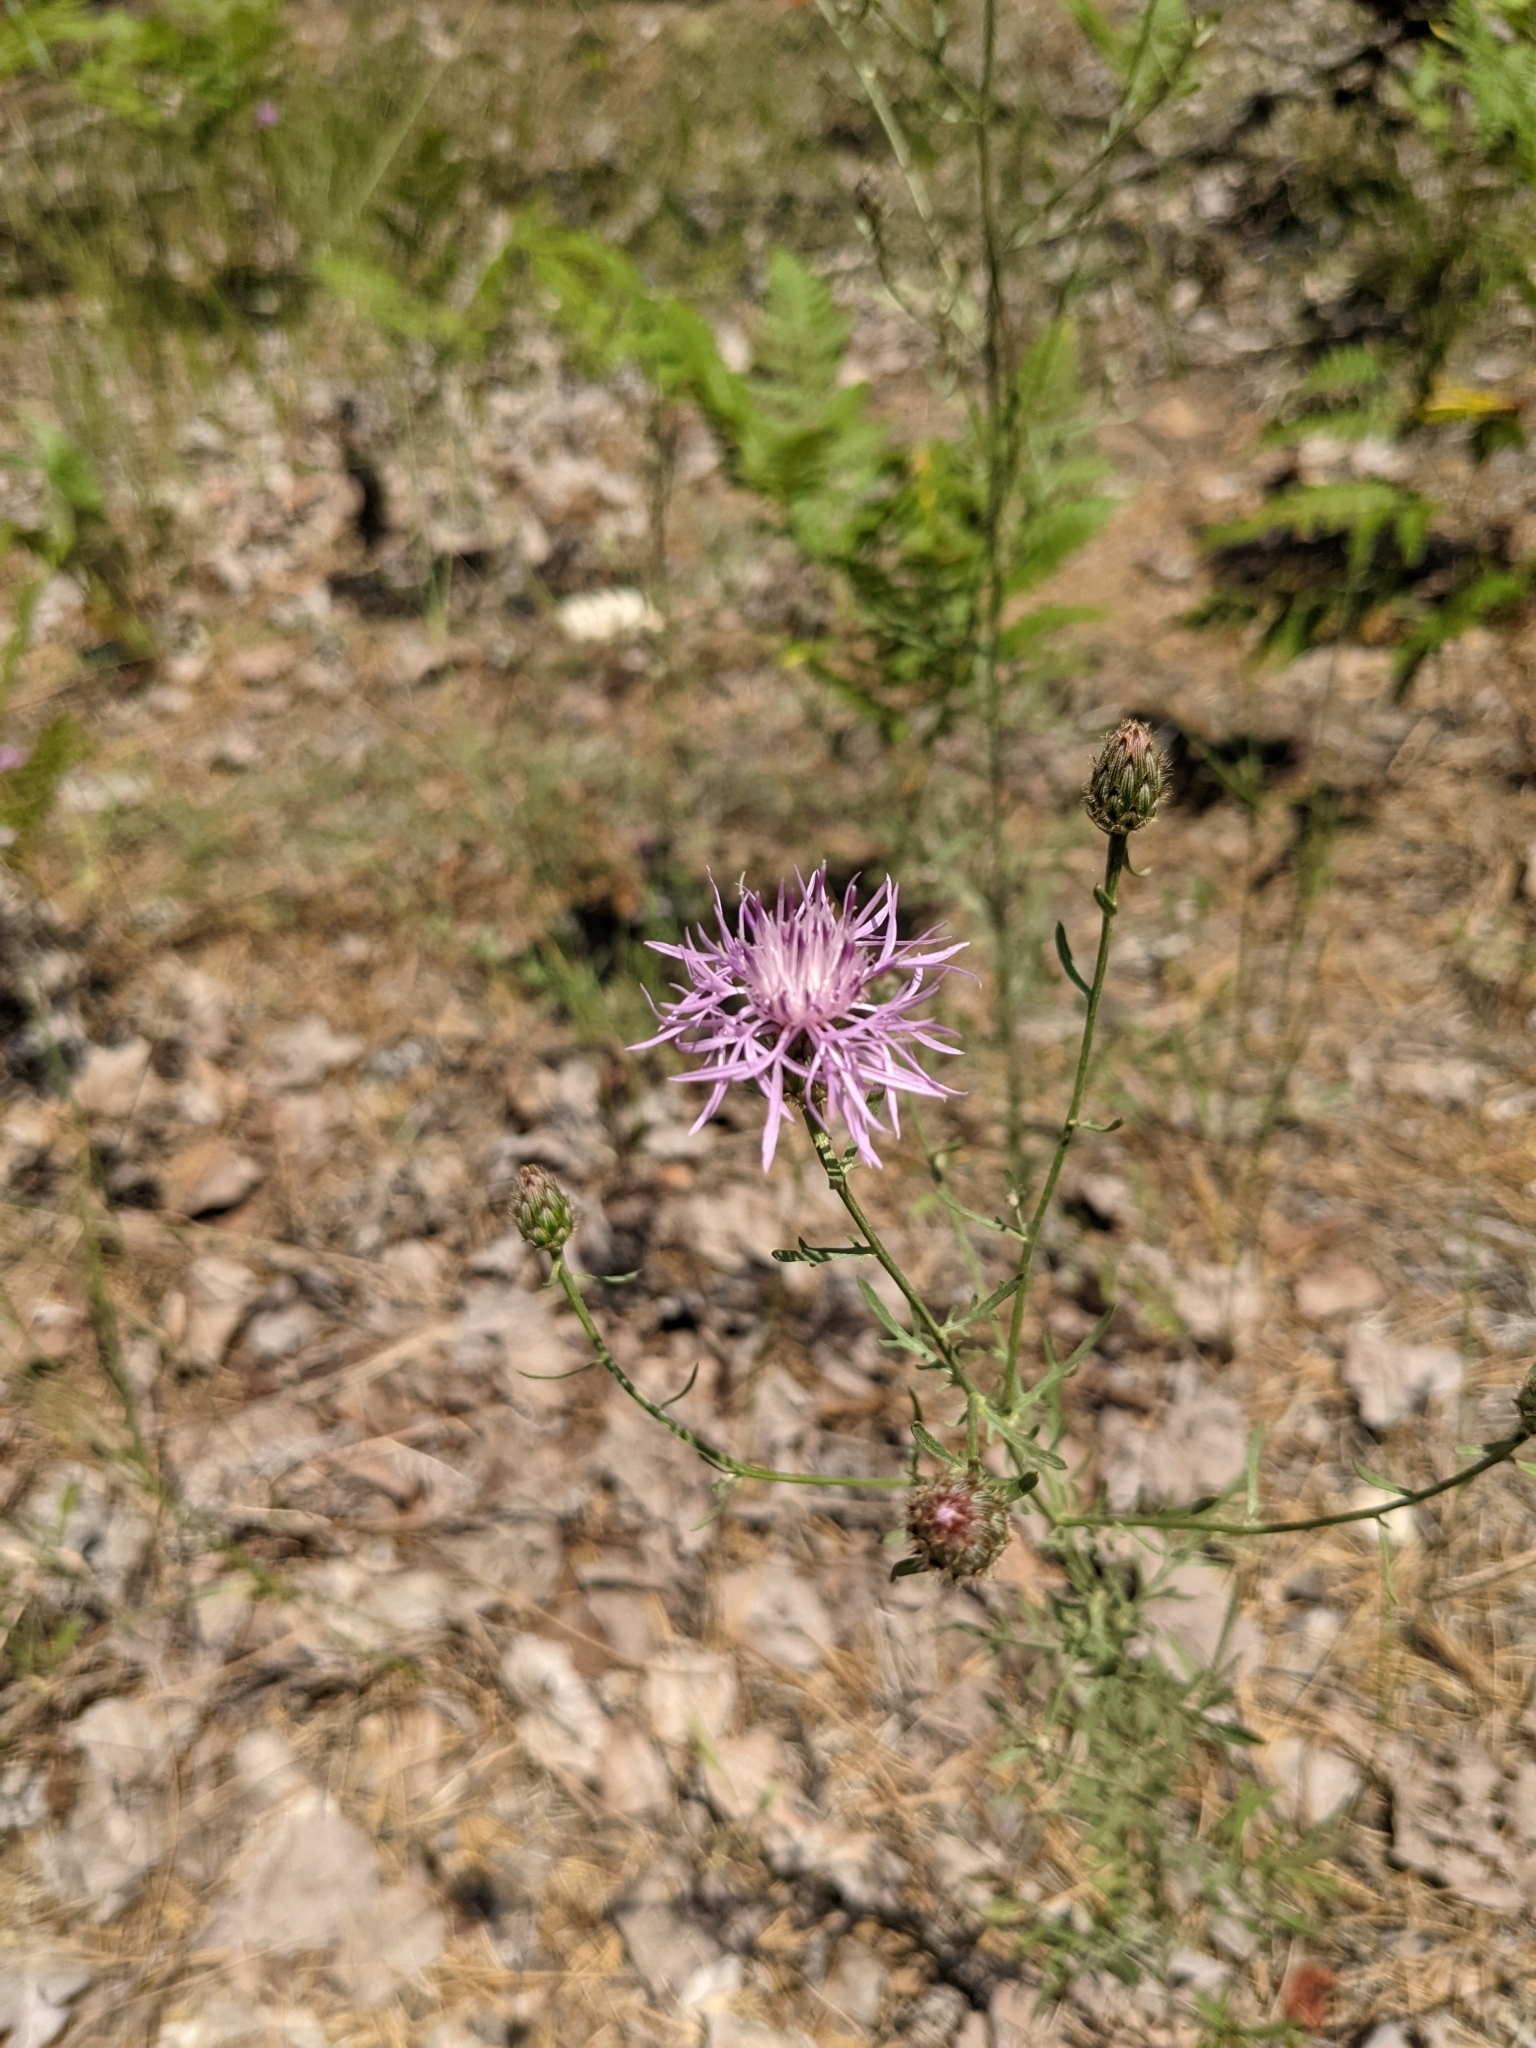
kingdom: Plantae
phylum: Tracheophyta
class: Magnoliopsida
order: Asterales
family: Asteraceae
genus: Centaurea
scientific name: Centaurea stoebe
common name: Spotted knapweed
